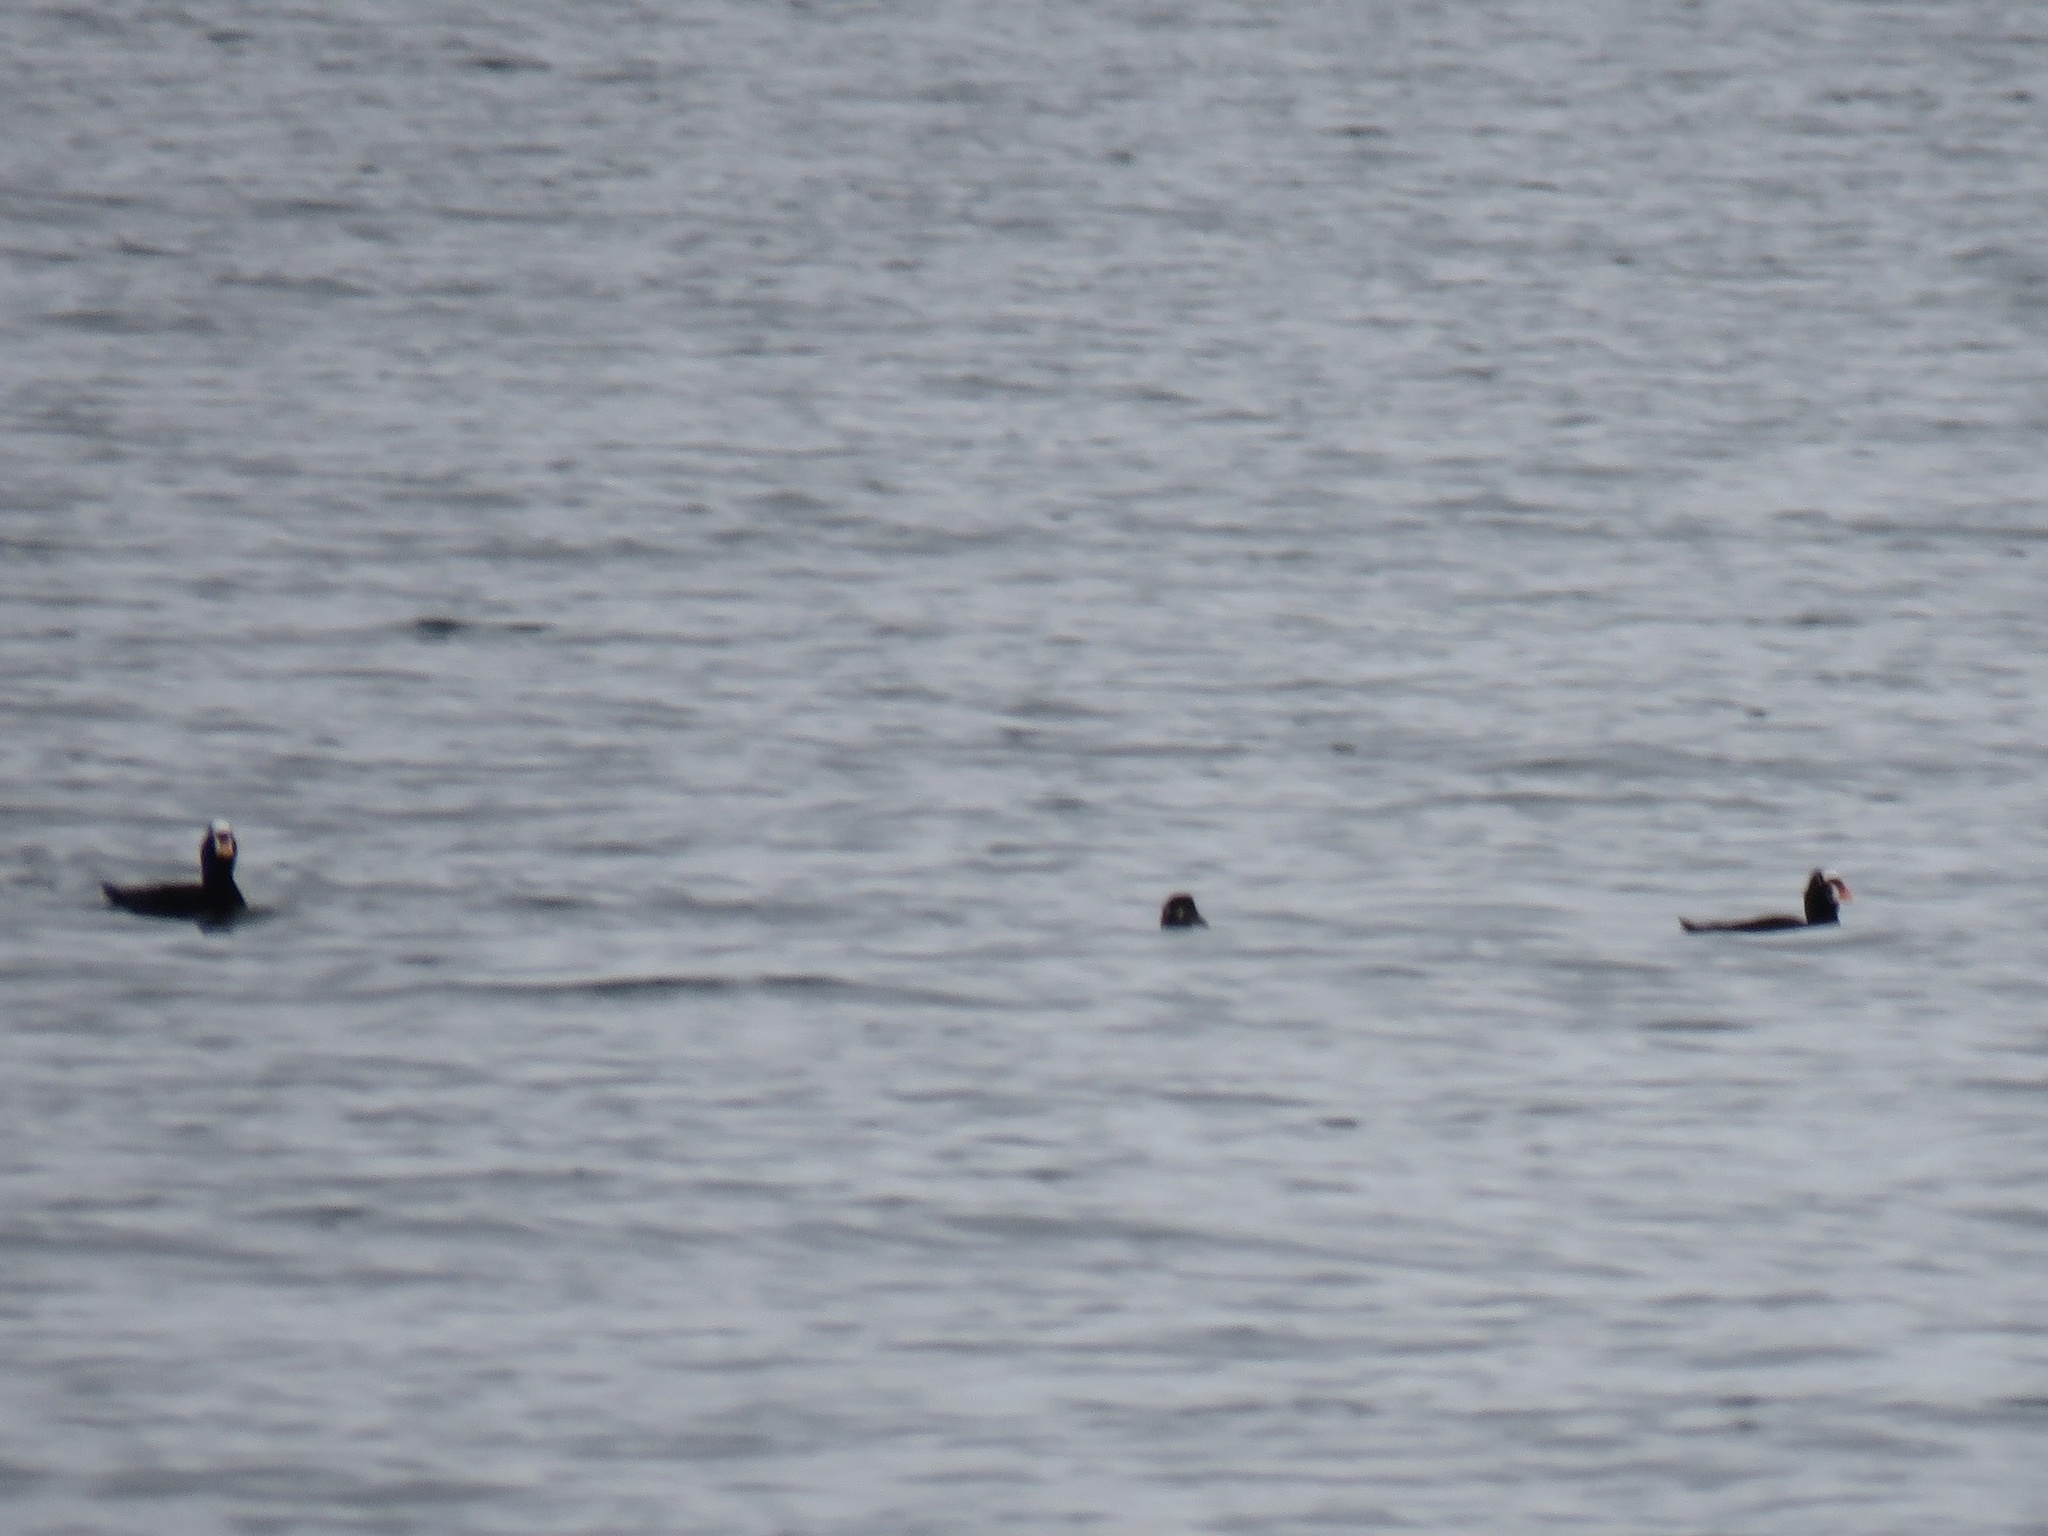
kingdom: Animalia
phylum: Chordata
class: Aves
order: Anseriformes
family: Anatidae
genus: Melanitta
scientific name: Melanitta perspicillata
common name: Surf scoter
